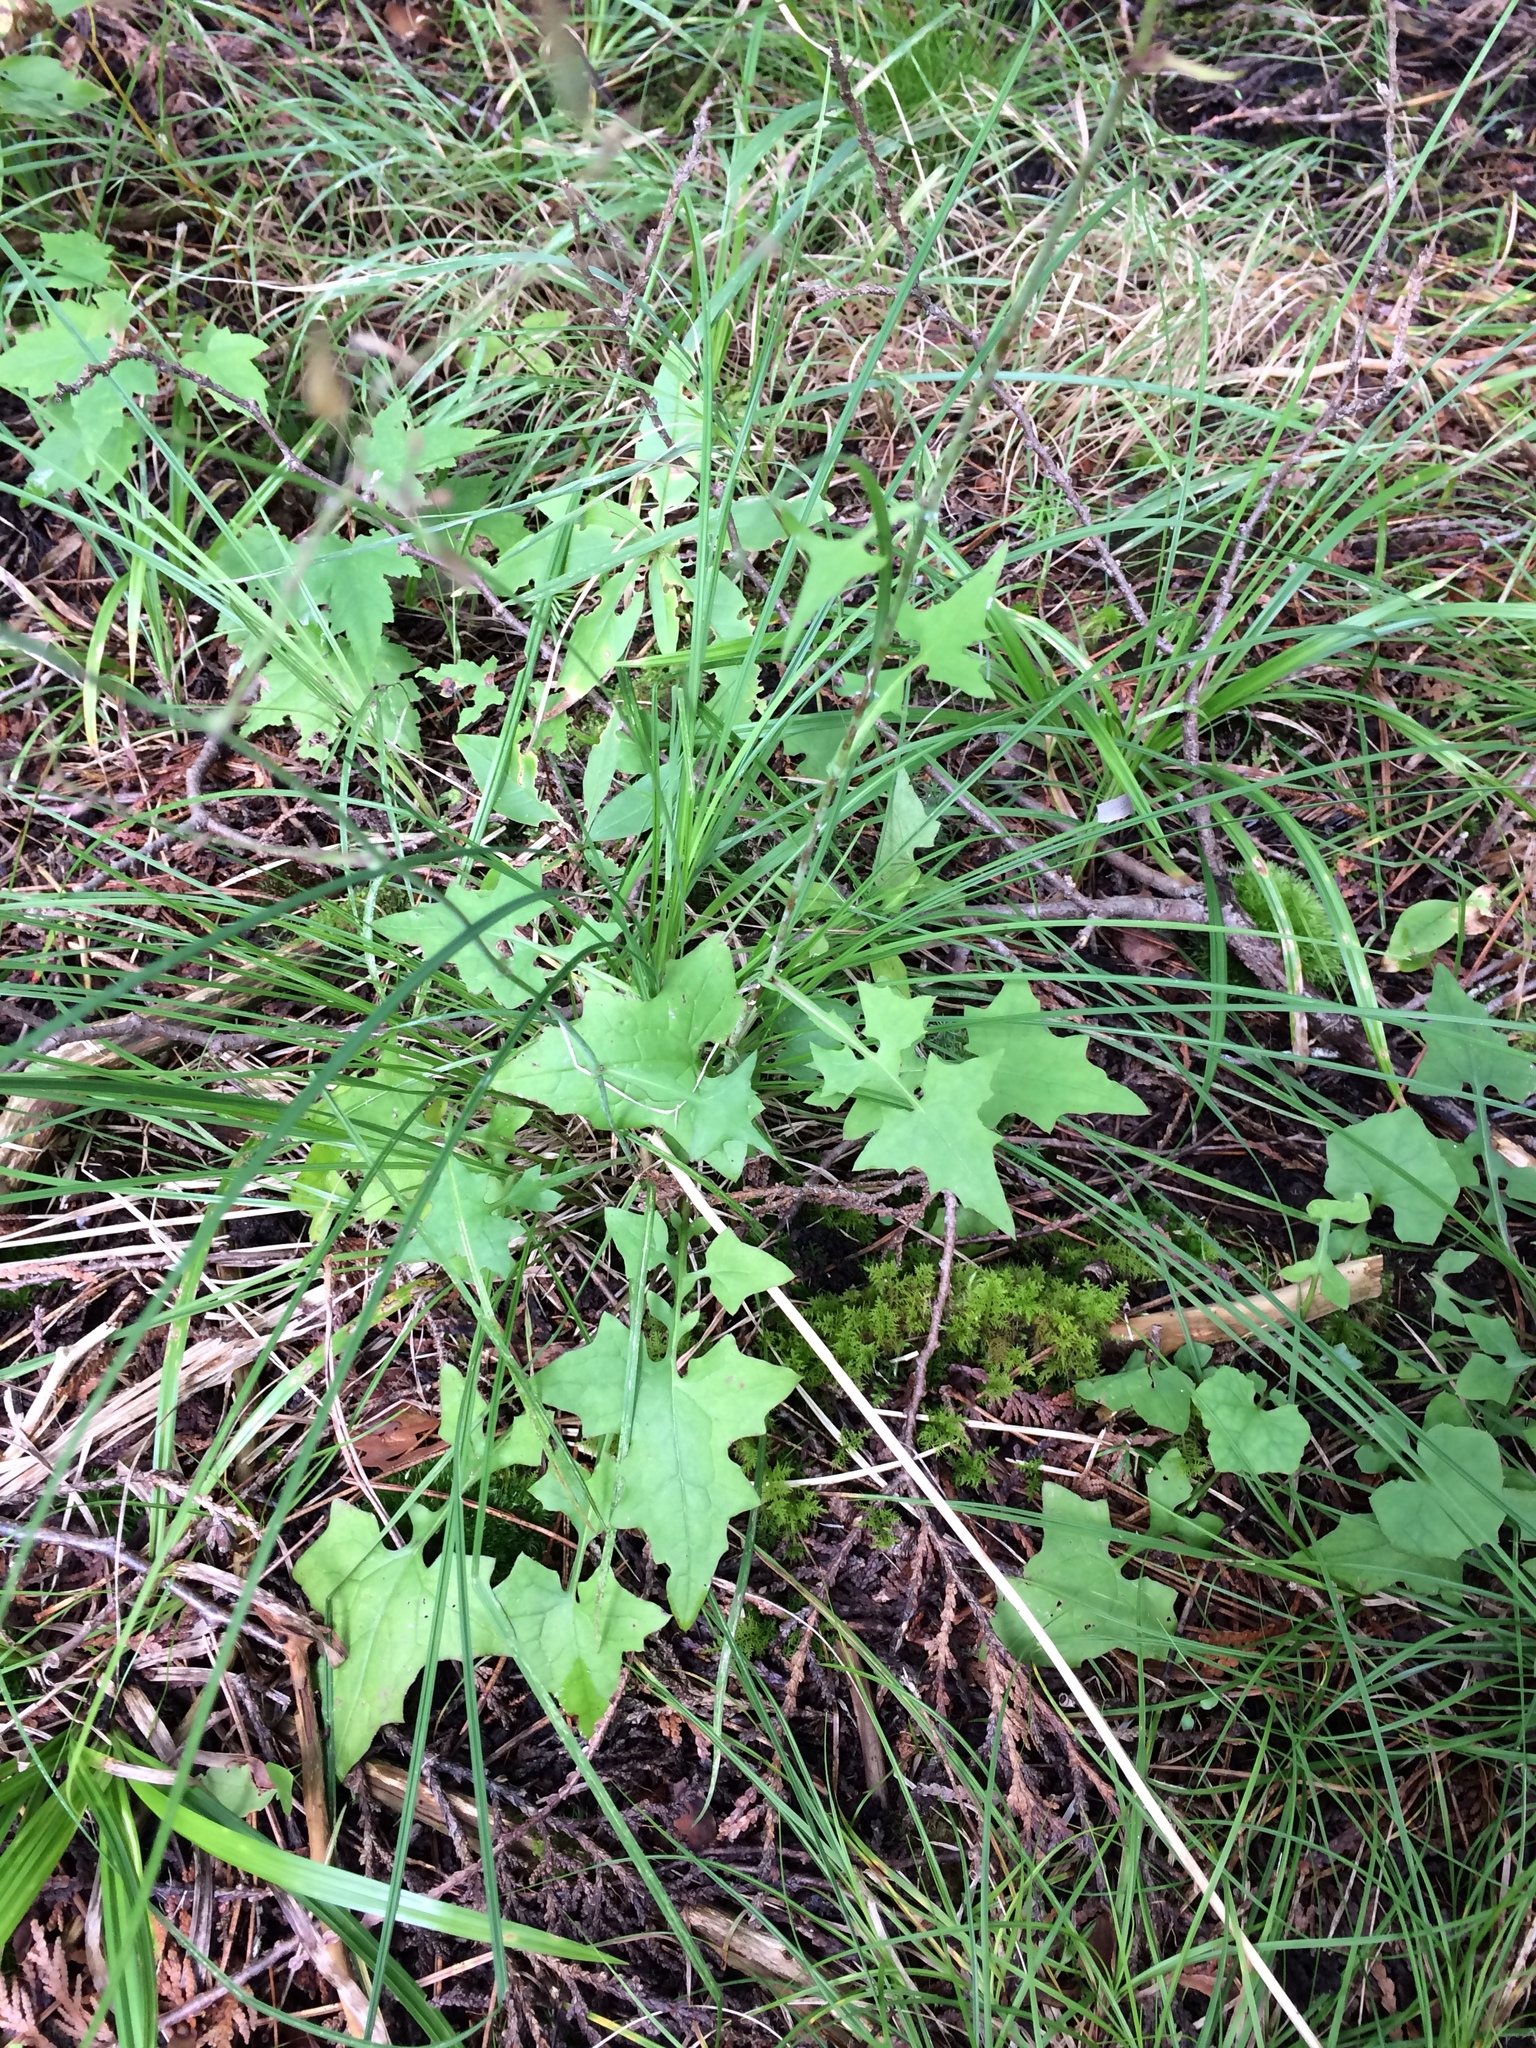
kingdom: Plantae
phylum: Tracheophyta
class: Magnoliopsida
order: Asterales
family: Asteraceae
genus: Mycelis
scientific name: Mycelis muralis
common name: Wall lettuce
